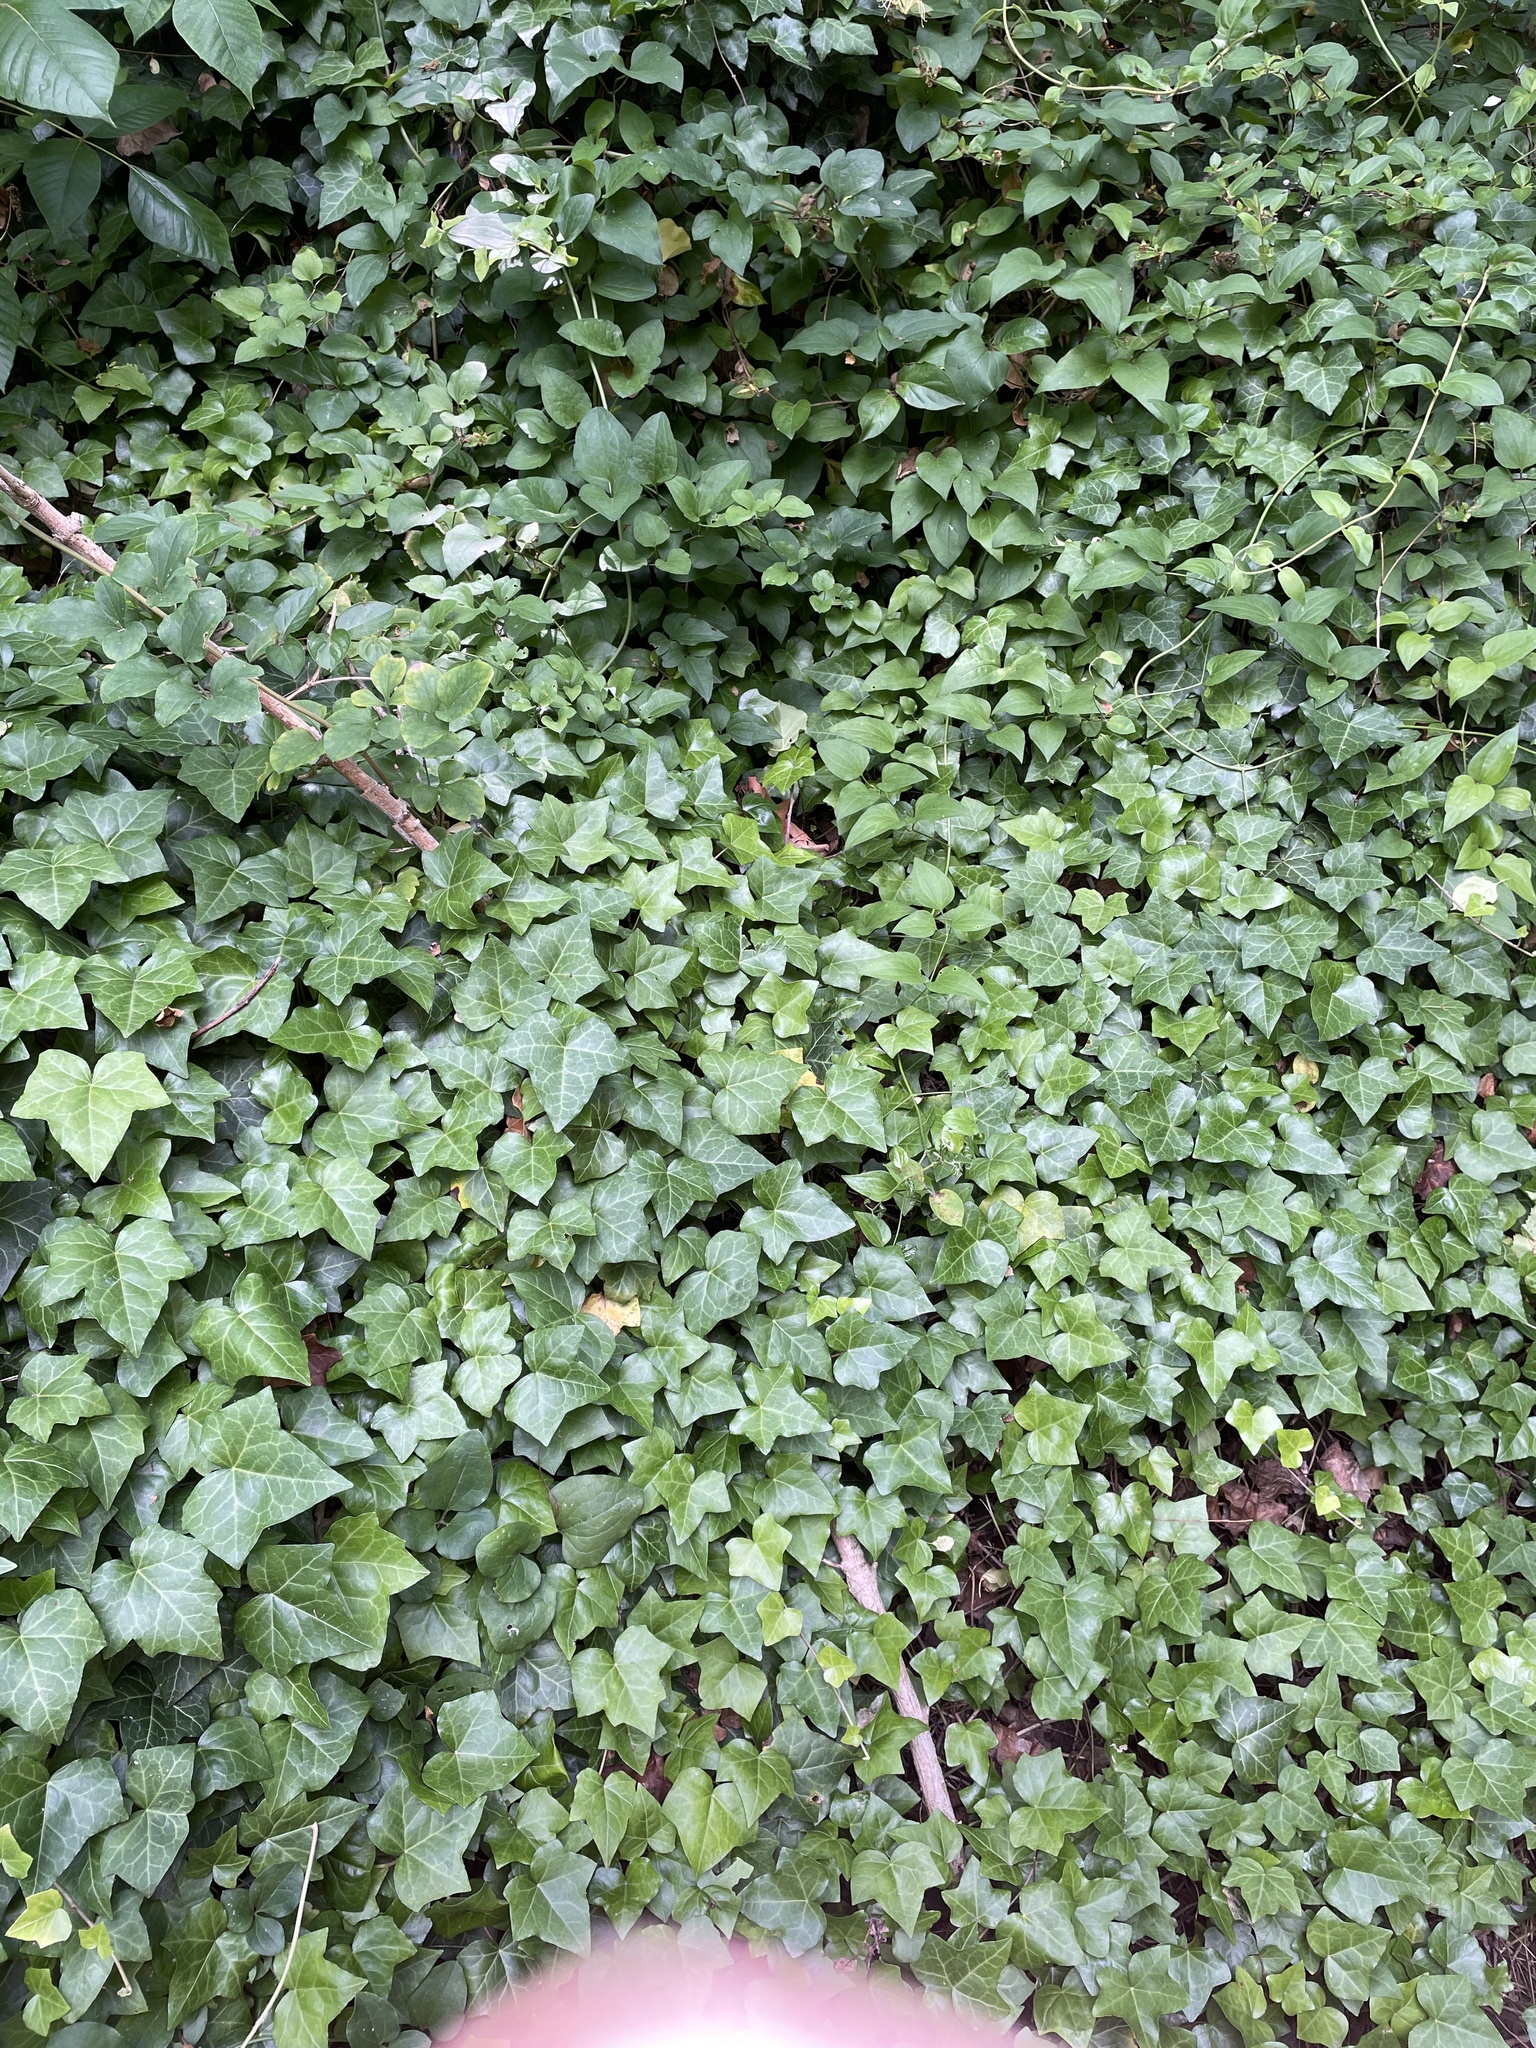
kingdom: Plantae
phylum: Tracheophyta
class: Magnoliopsida
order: Apiales
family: Araliaceae
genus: Hedera
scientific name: Hedera helix
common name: Ivy
